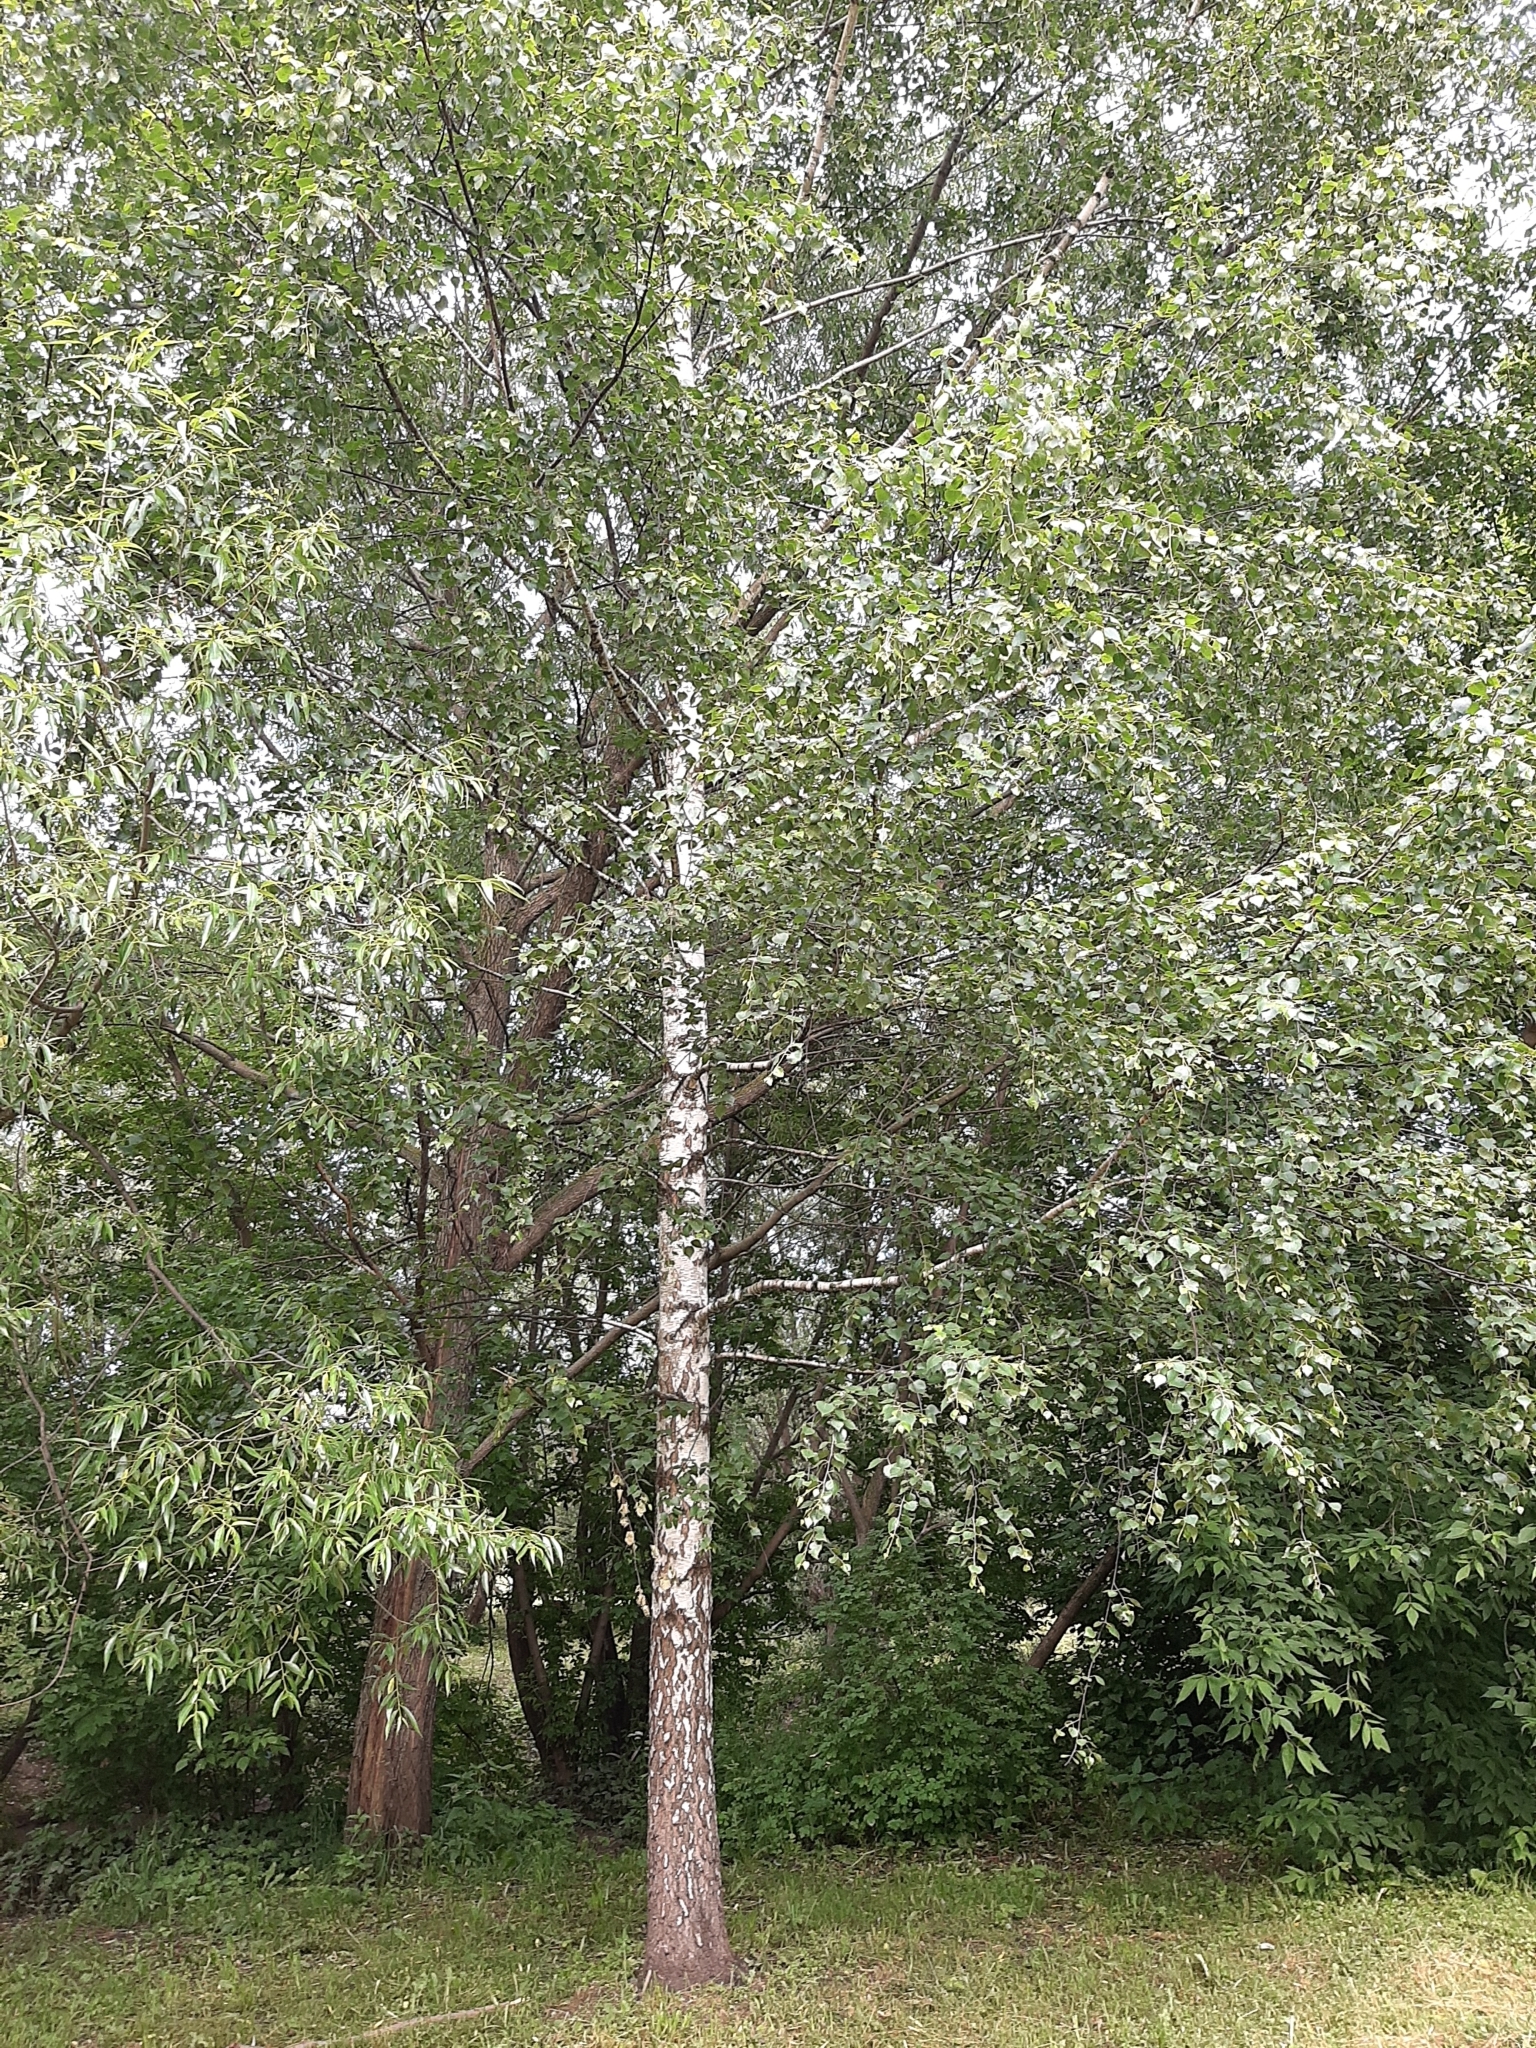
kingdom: Plantae
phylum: Tracheophyta
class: Magnoliopsida
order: Fagales
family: Betulaceae
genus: Betula
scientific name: Betula pendula
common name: Silver birch
